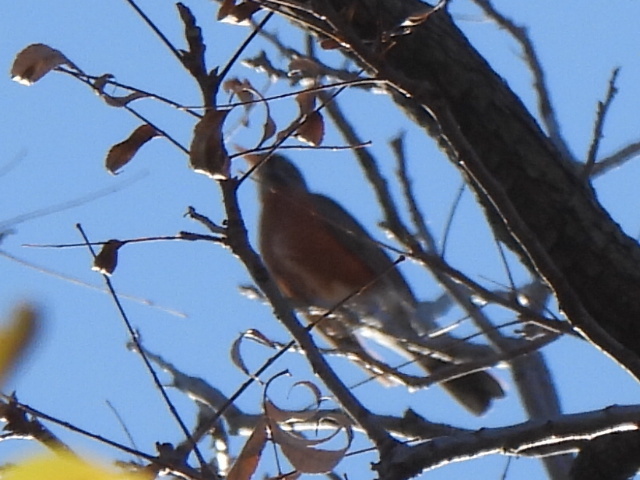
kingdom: Animalia
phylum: Chordata
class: Aves
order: Passeriformes
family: Turdidae
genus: Turdus
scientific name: Turdus migratorius
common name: American robin
